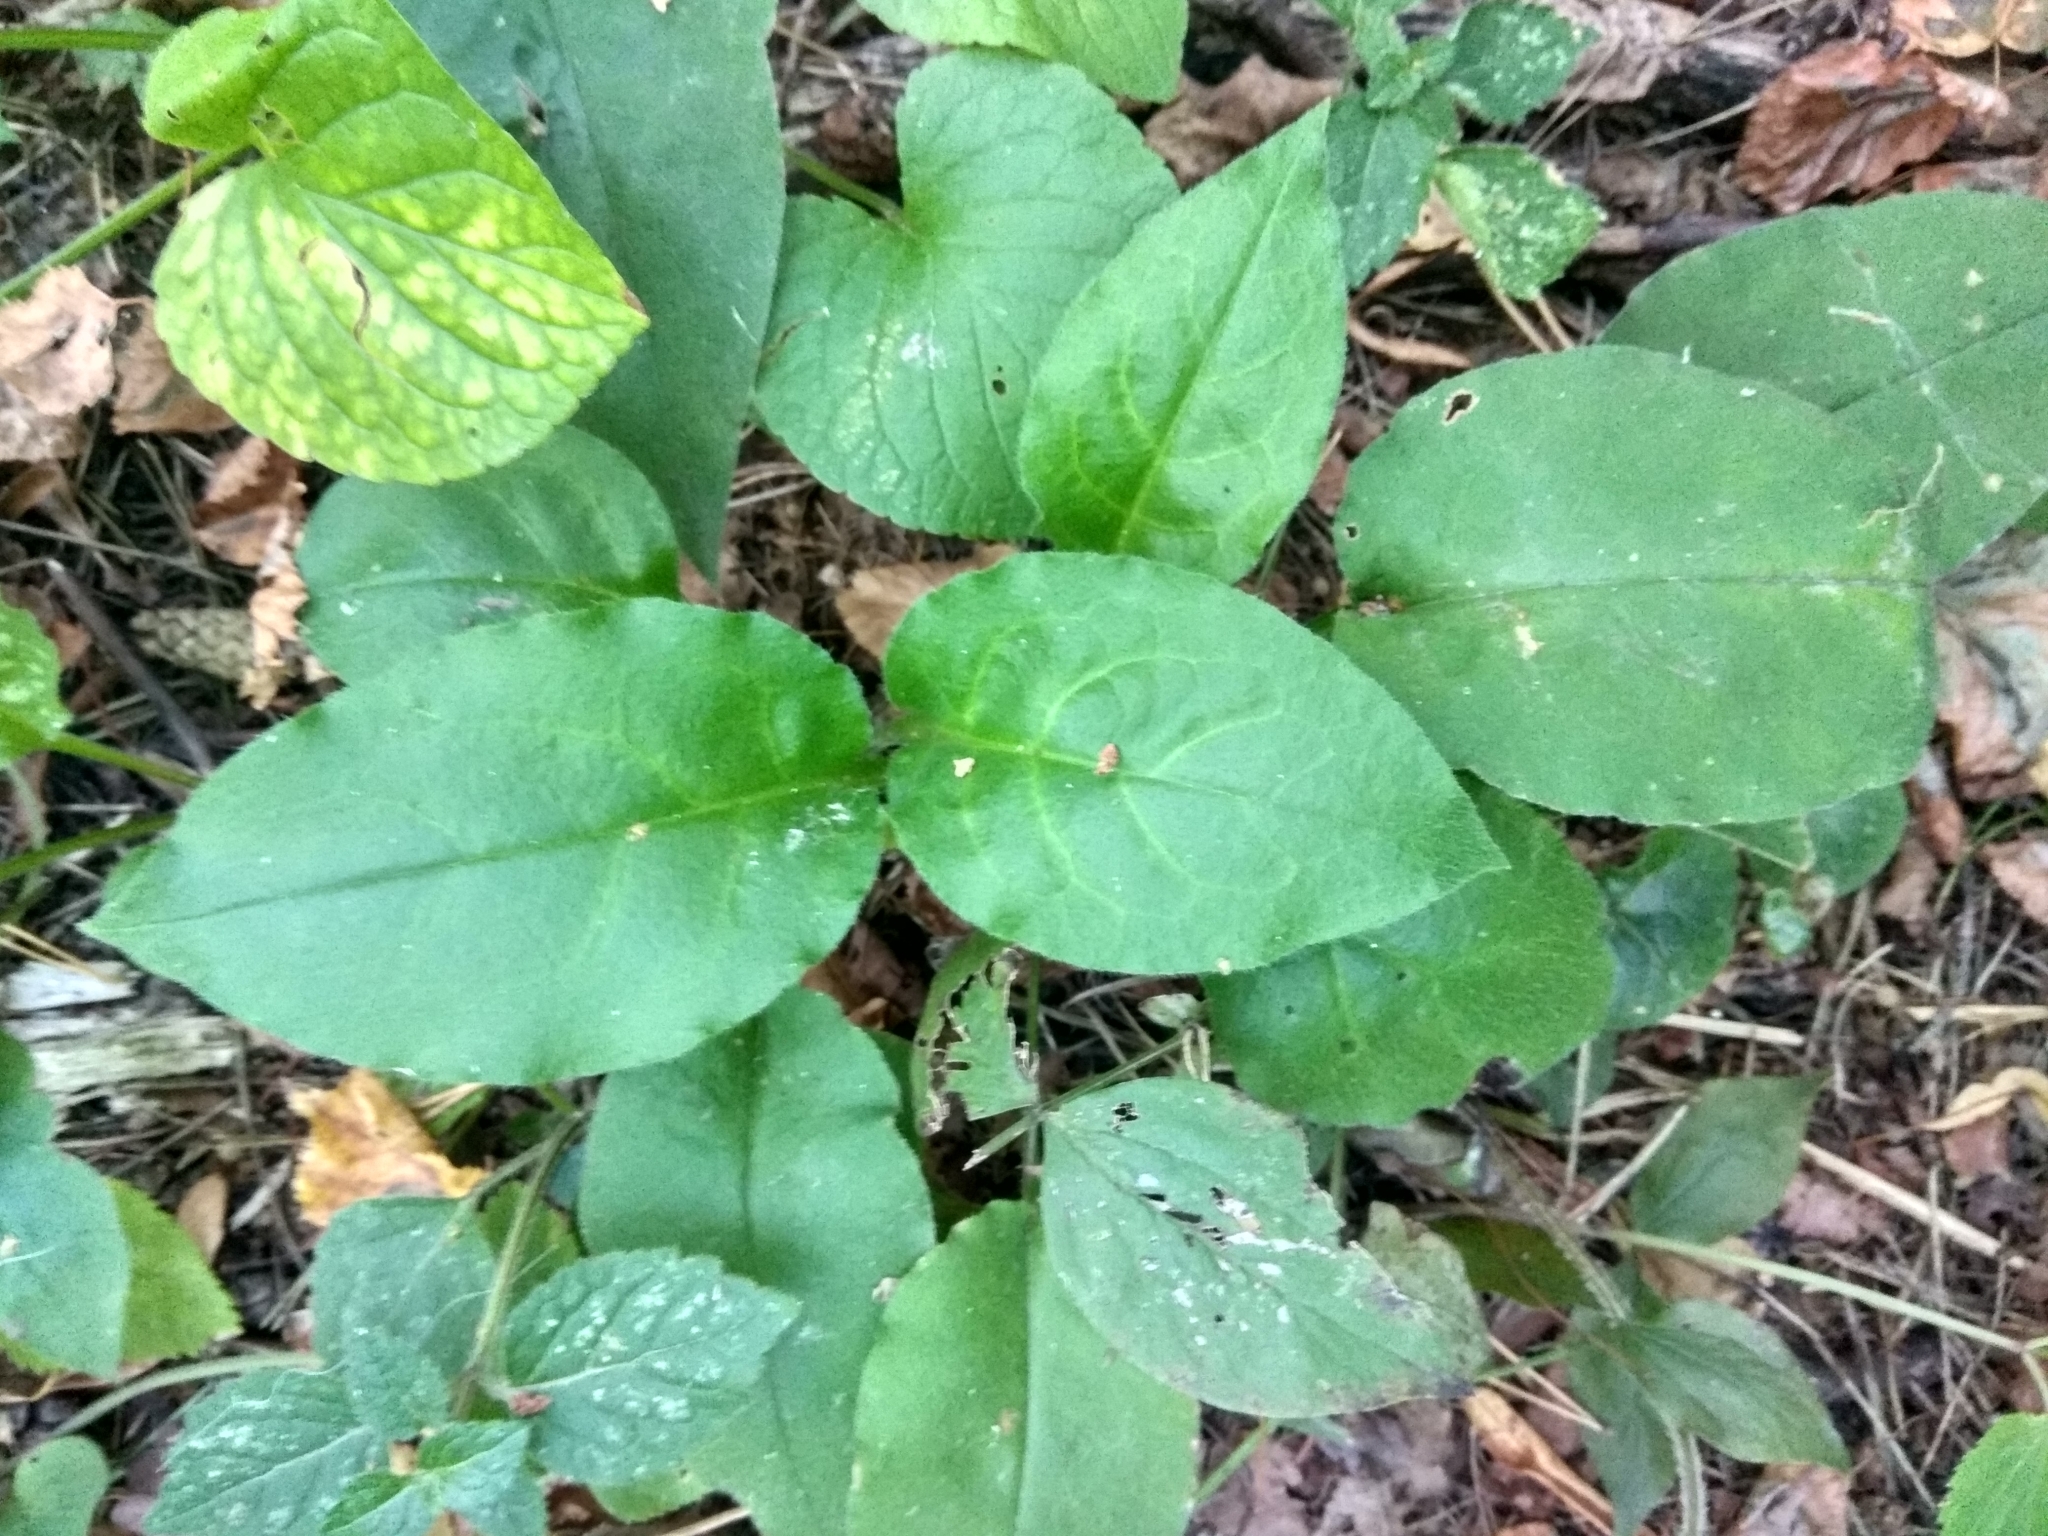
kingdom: Plantae
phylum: Tracheophyta
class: Magnoliopsida
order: Boraginales
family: Boraginaceae
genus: Pulmonaria
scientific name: Pulmonaria obscura
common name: Suffolk lungwort
